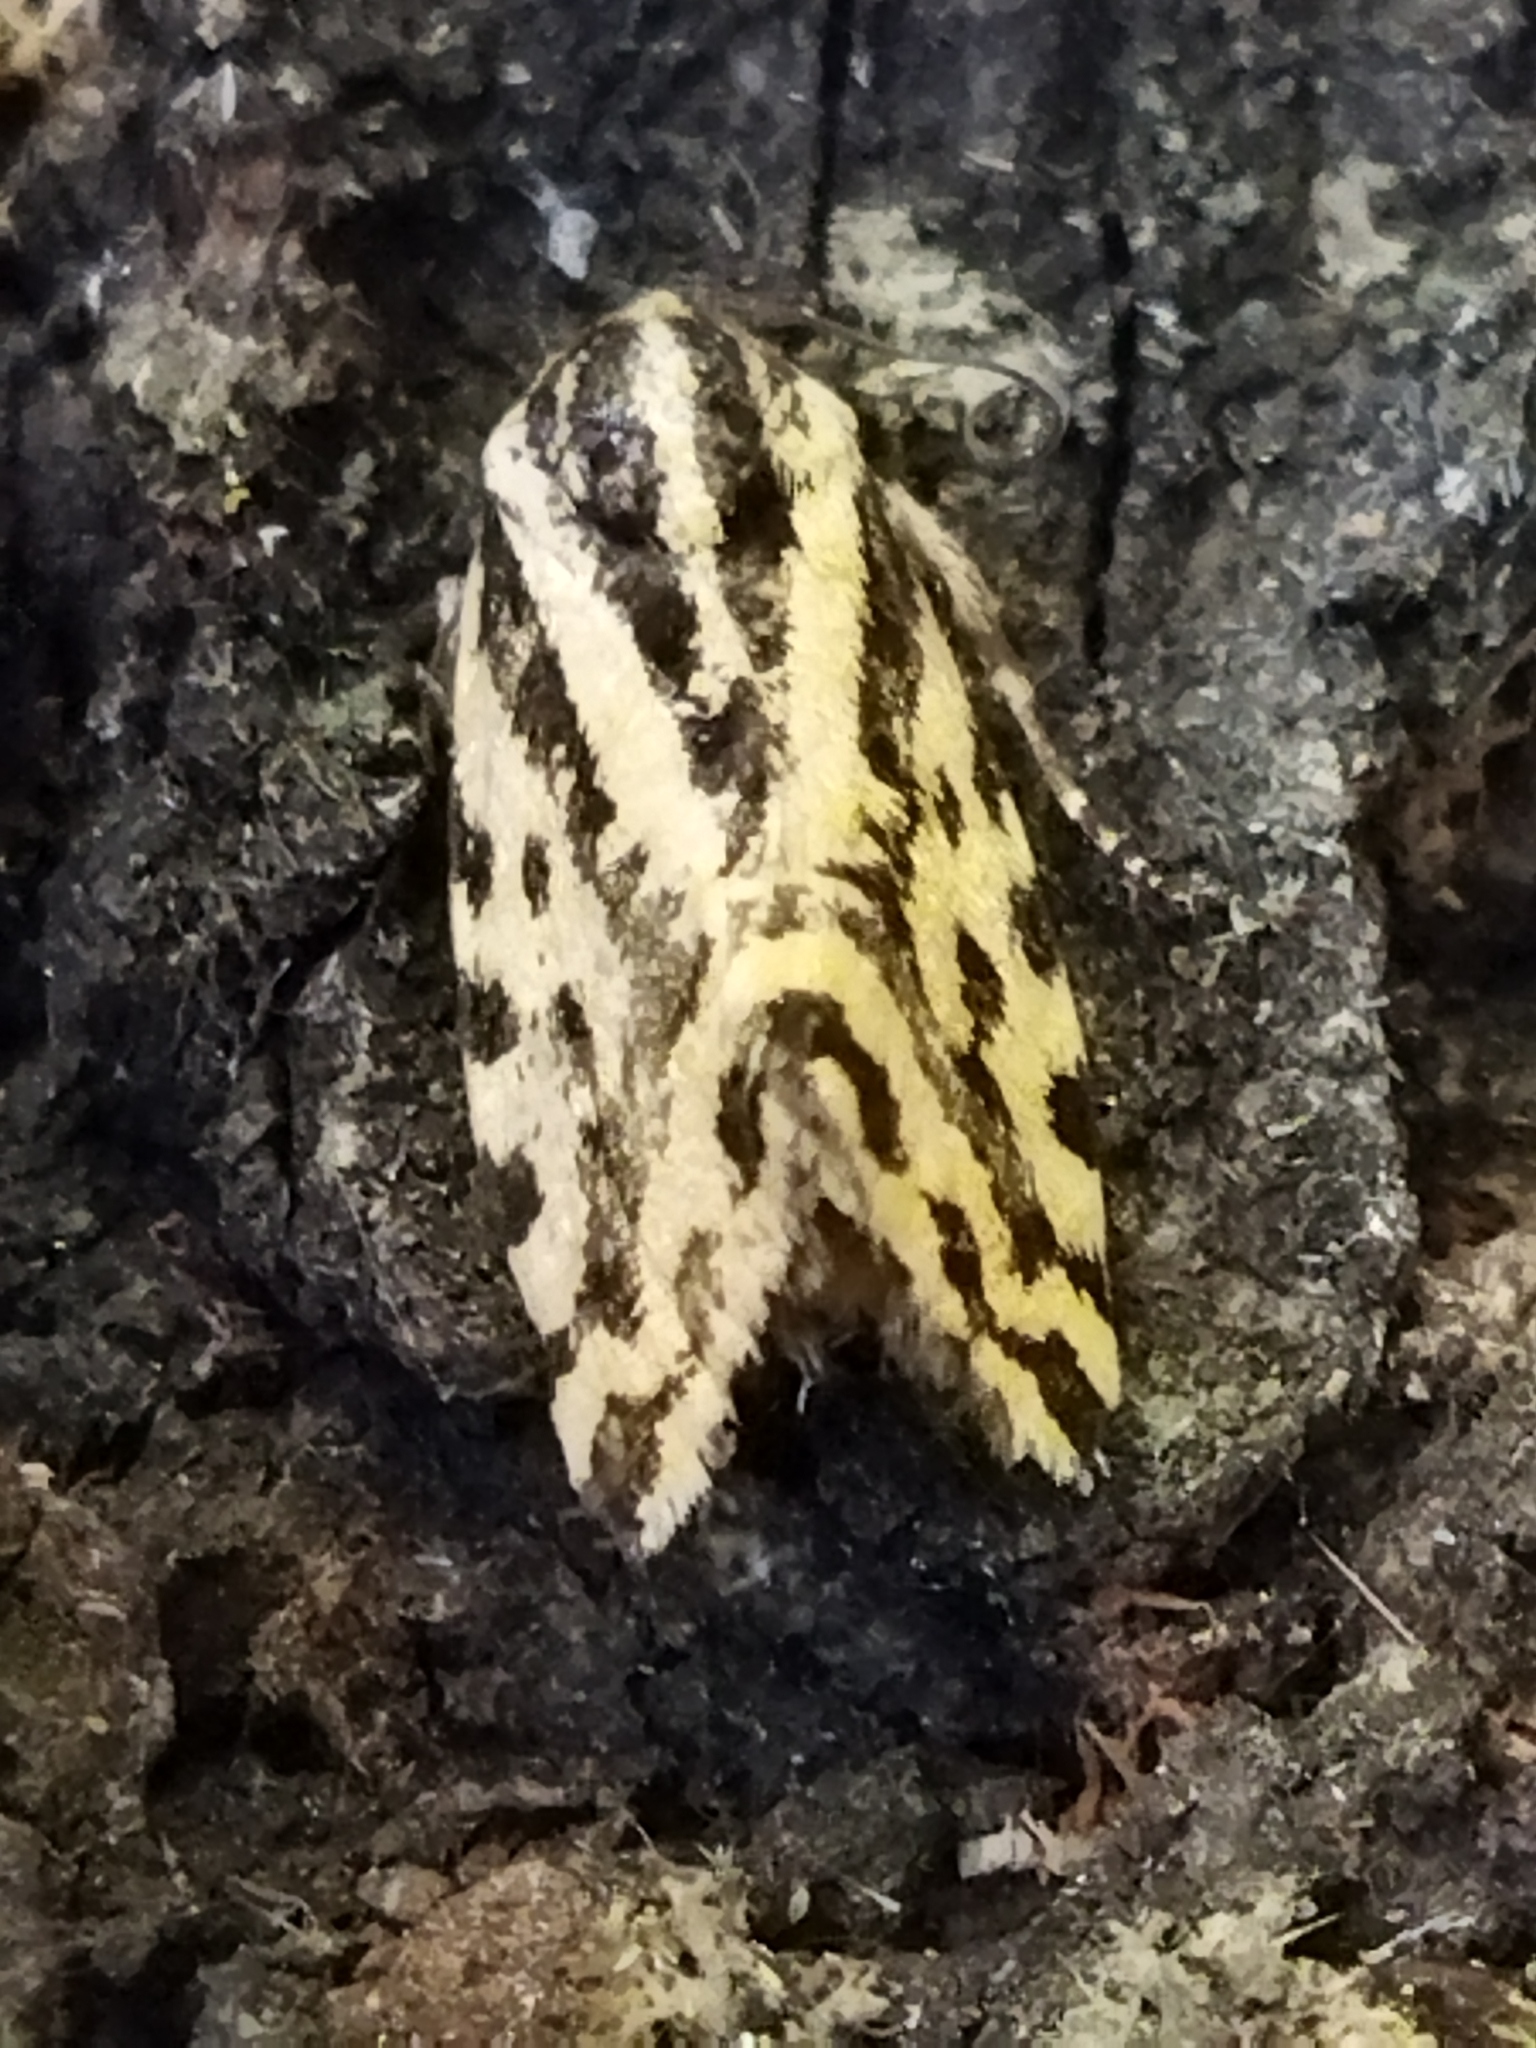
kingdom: Animalia
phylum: Arthropoda
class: Insecta
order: Lepidoptera
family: Noctuidae
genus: Acontia
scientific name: Acontia trabealis
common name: Spotted sulphur
